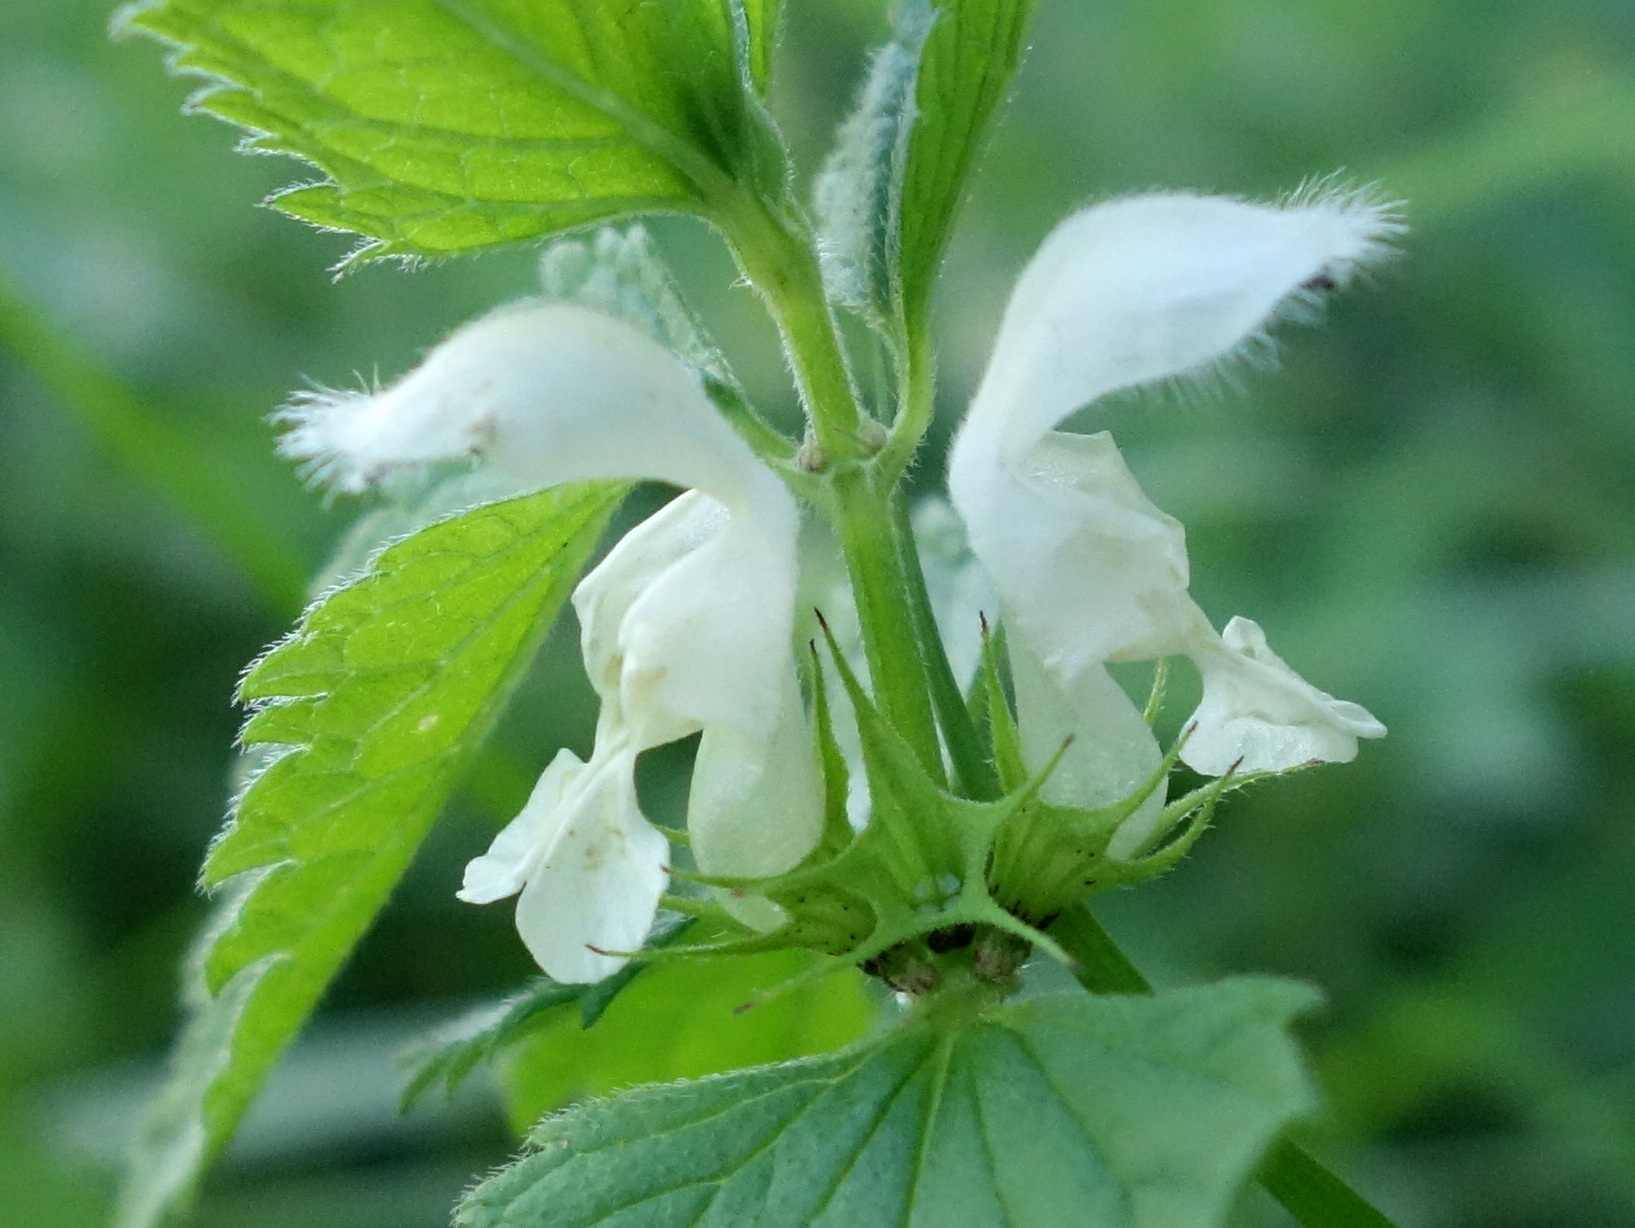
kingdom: Plantae
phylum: Tracheophyta
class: Magnoliopsida
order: Lamiales
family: Lamiaceae
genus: Lamium
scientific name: Lamium album
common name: White dead-nettle
